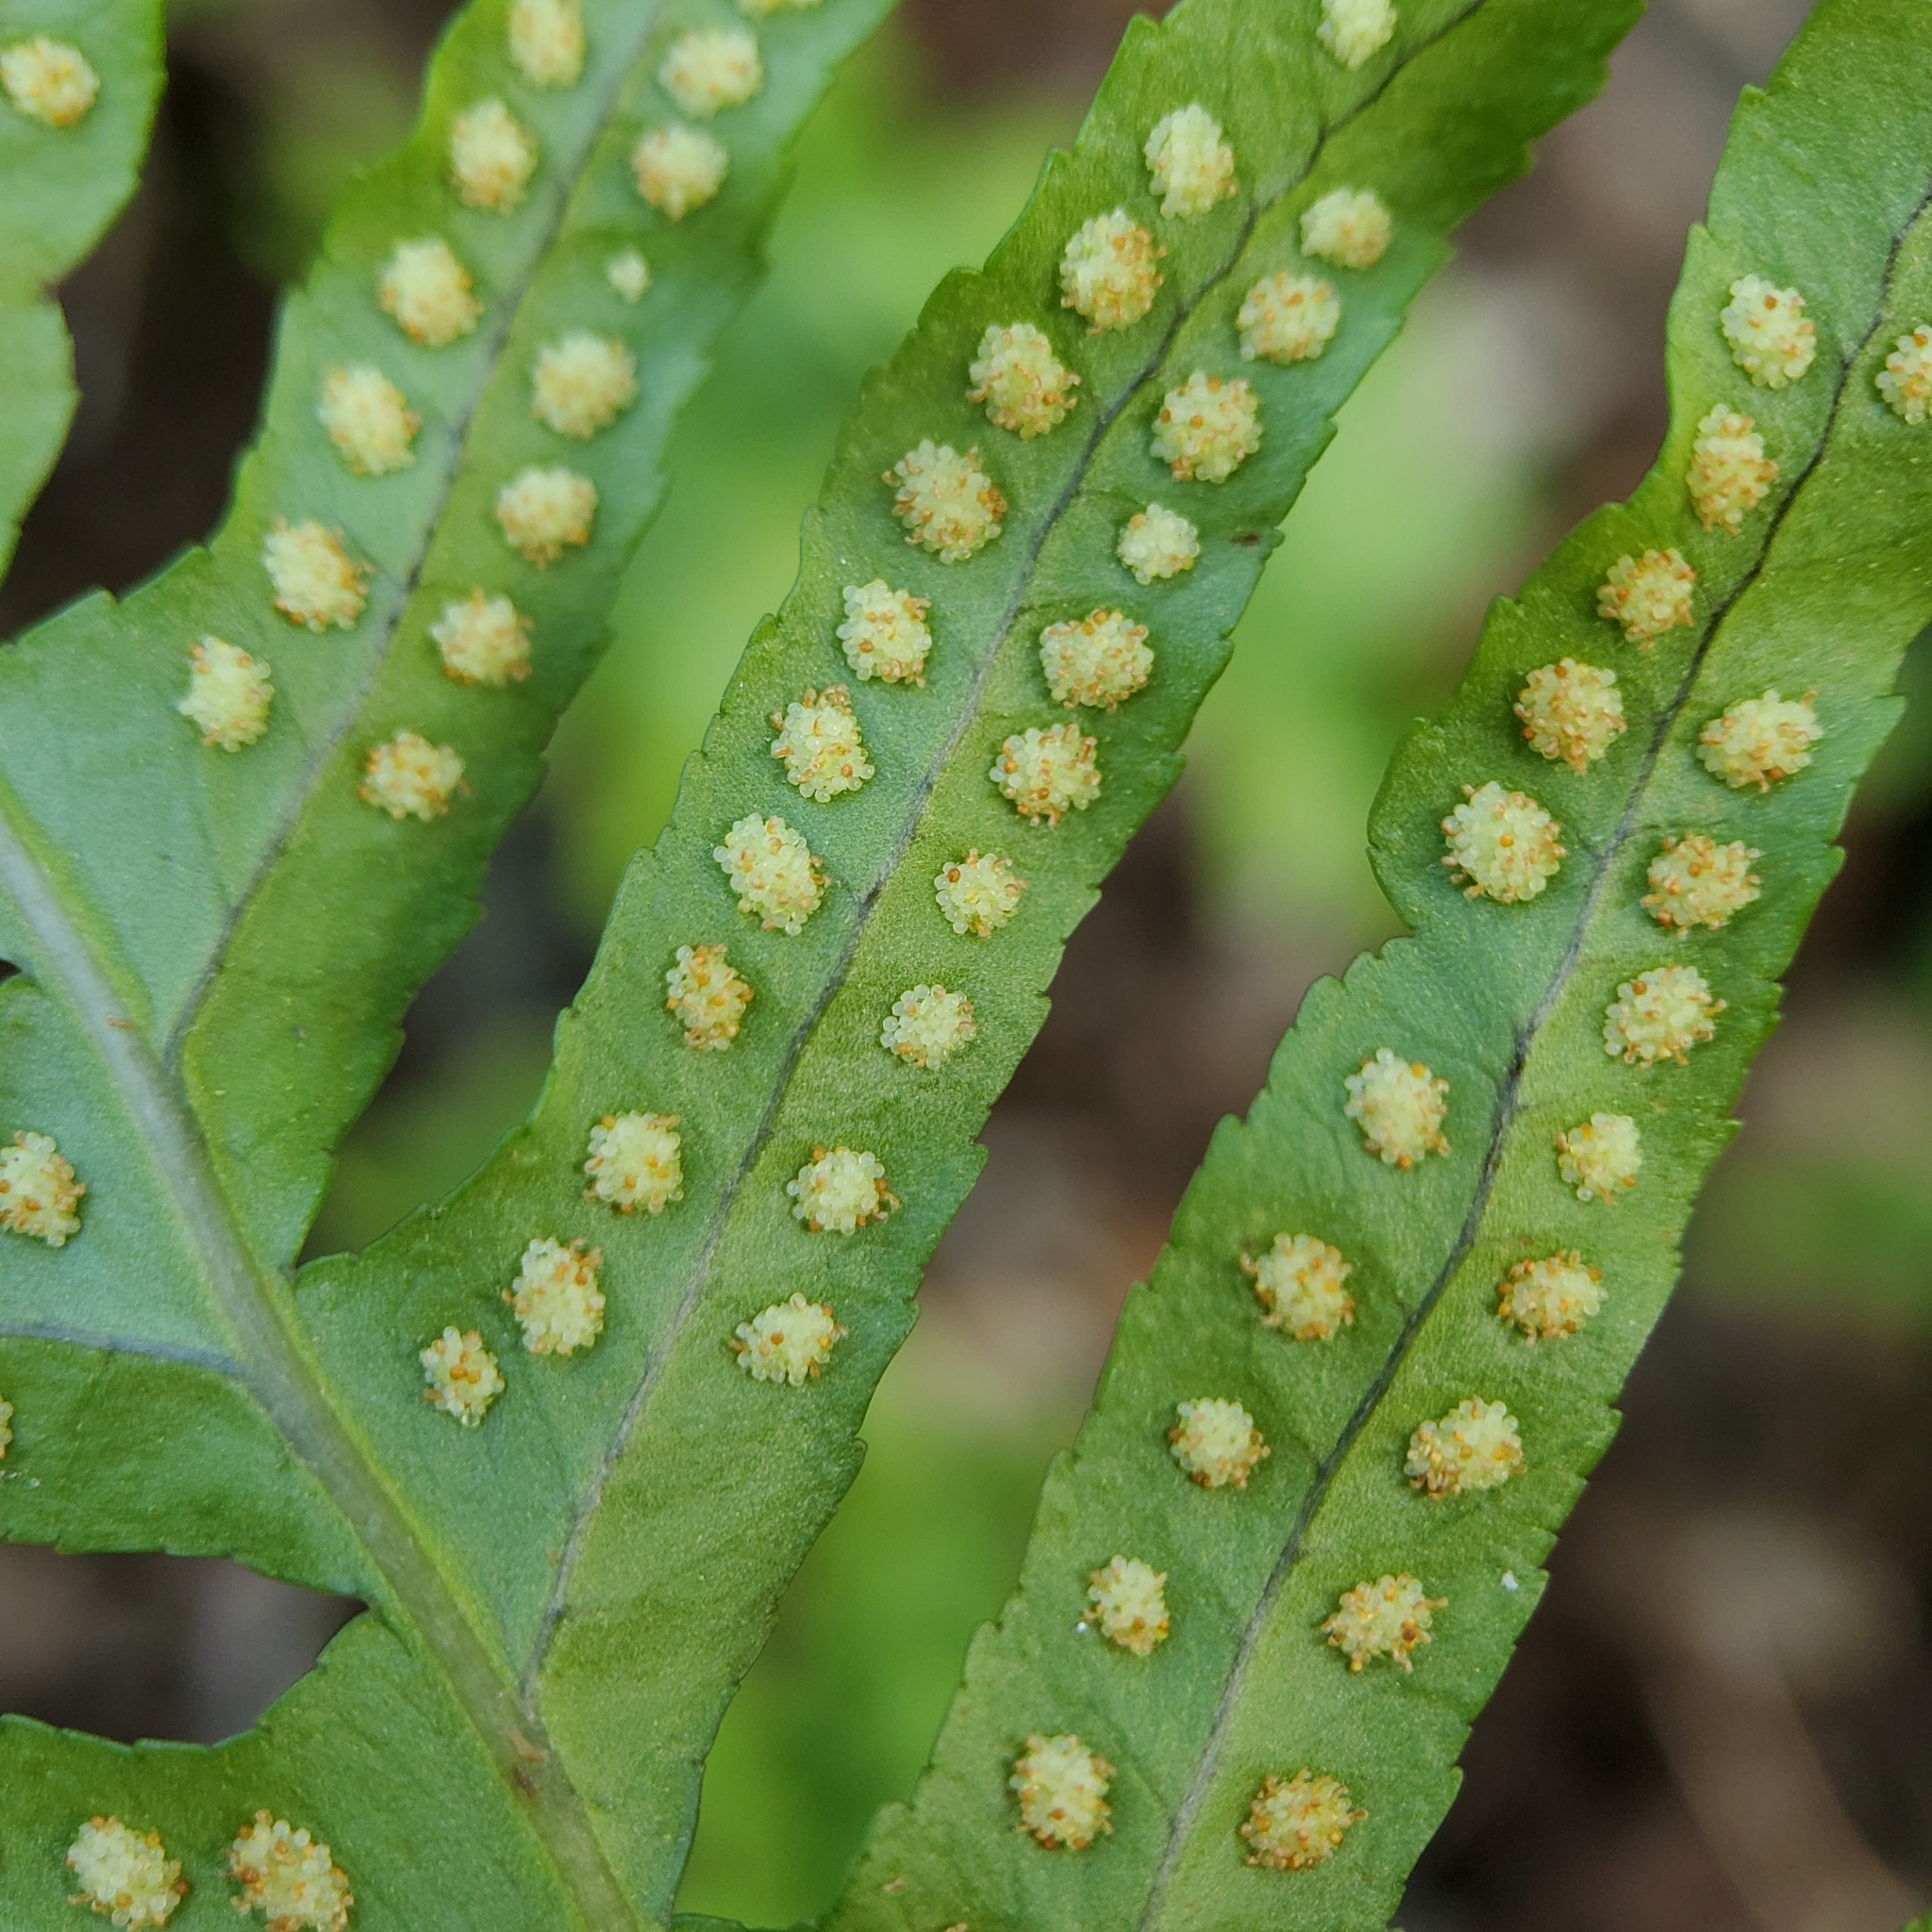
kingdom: Plantae
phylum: Tracheophyta
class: Polypodiopsida
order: Polypodiales
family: Polypodiaceae
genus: Polypodium
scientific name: Polypodium californicum
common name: California polypody
